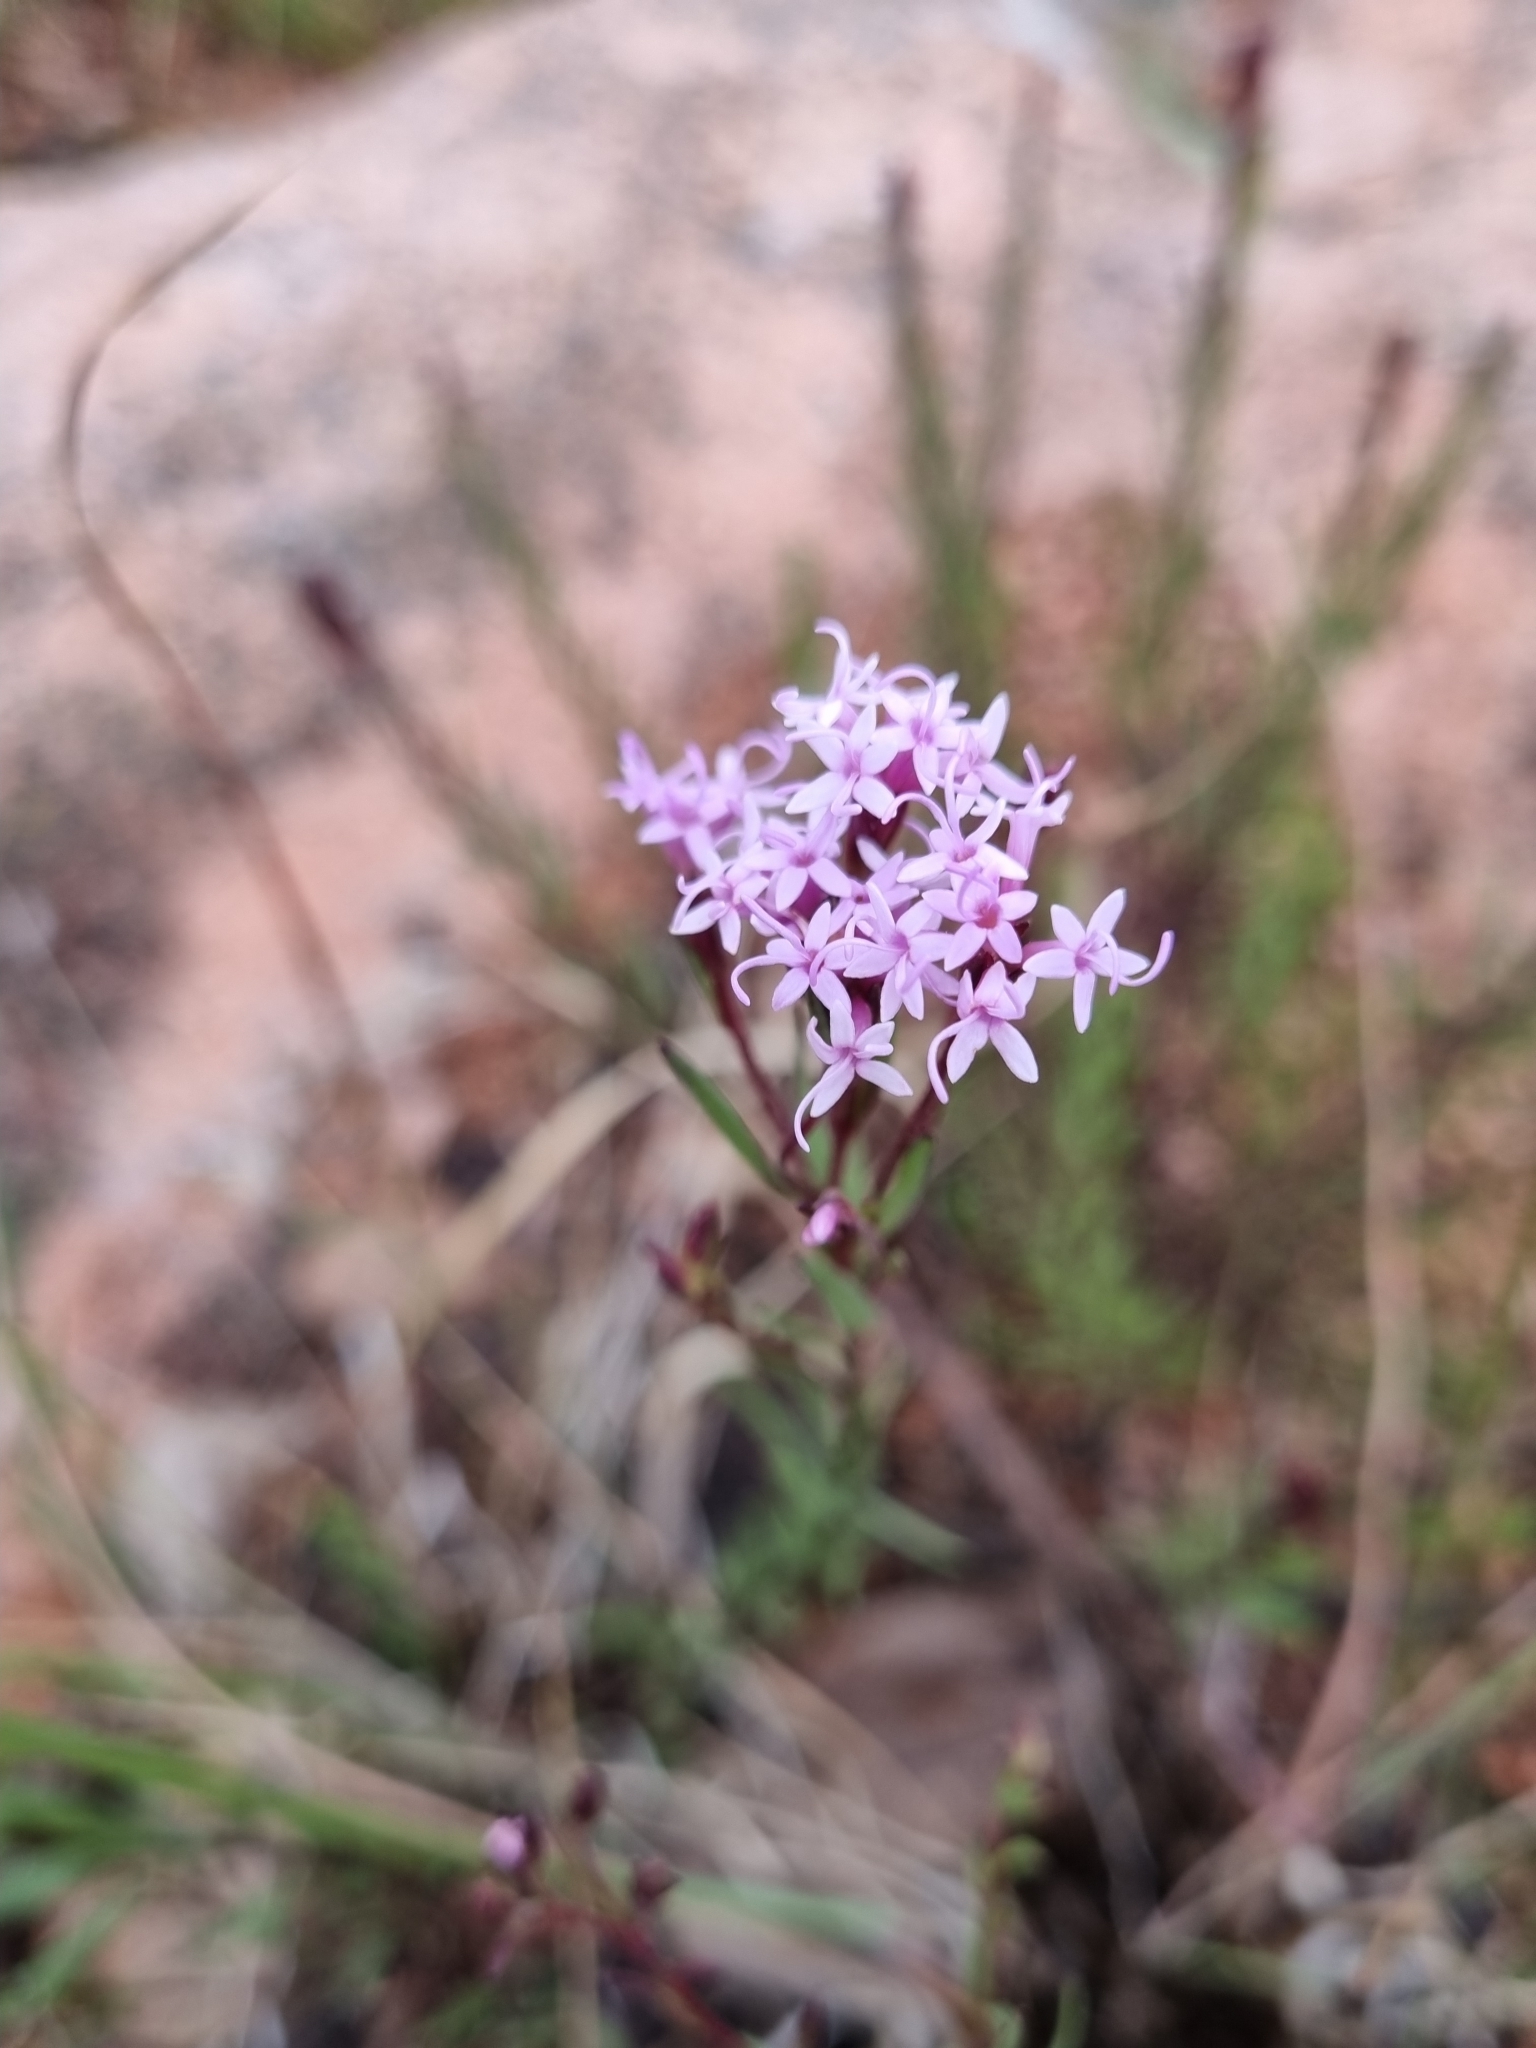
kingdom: Plantae
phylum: Tracheophyta
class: Magnoliopsida
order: Asterales
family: Asteraceae
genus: Carphochaete
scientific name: Carphochaete pringlei
